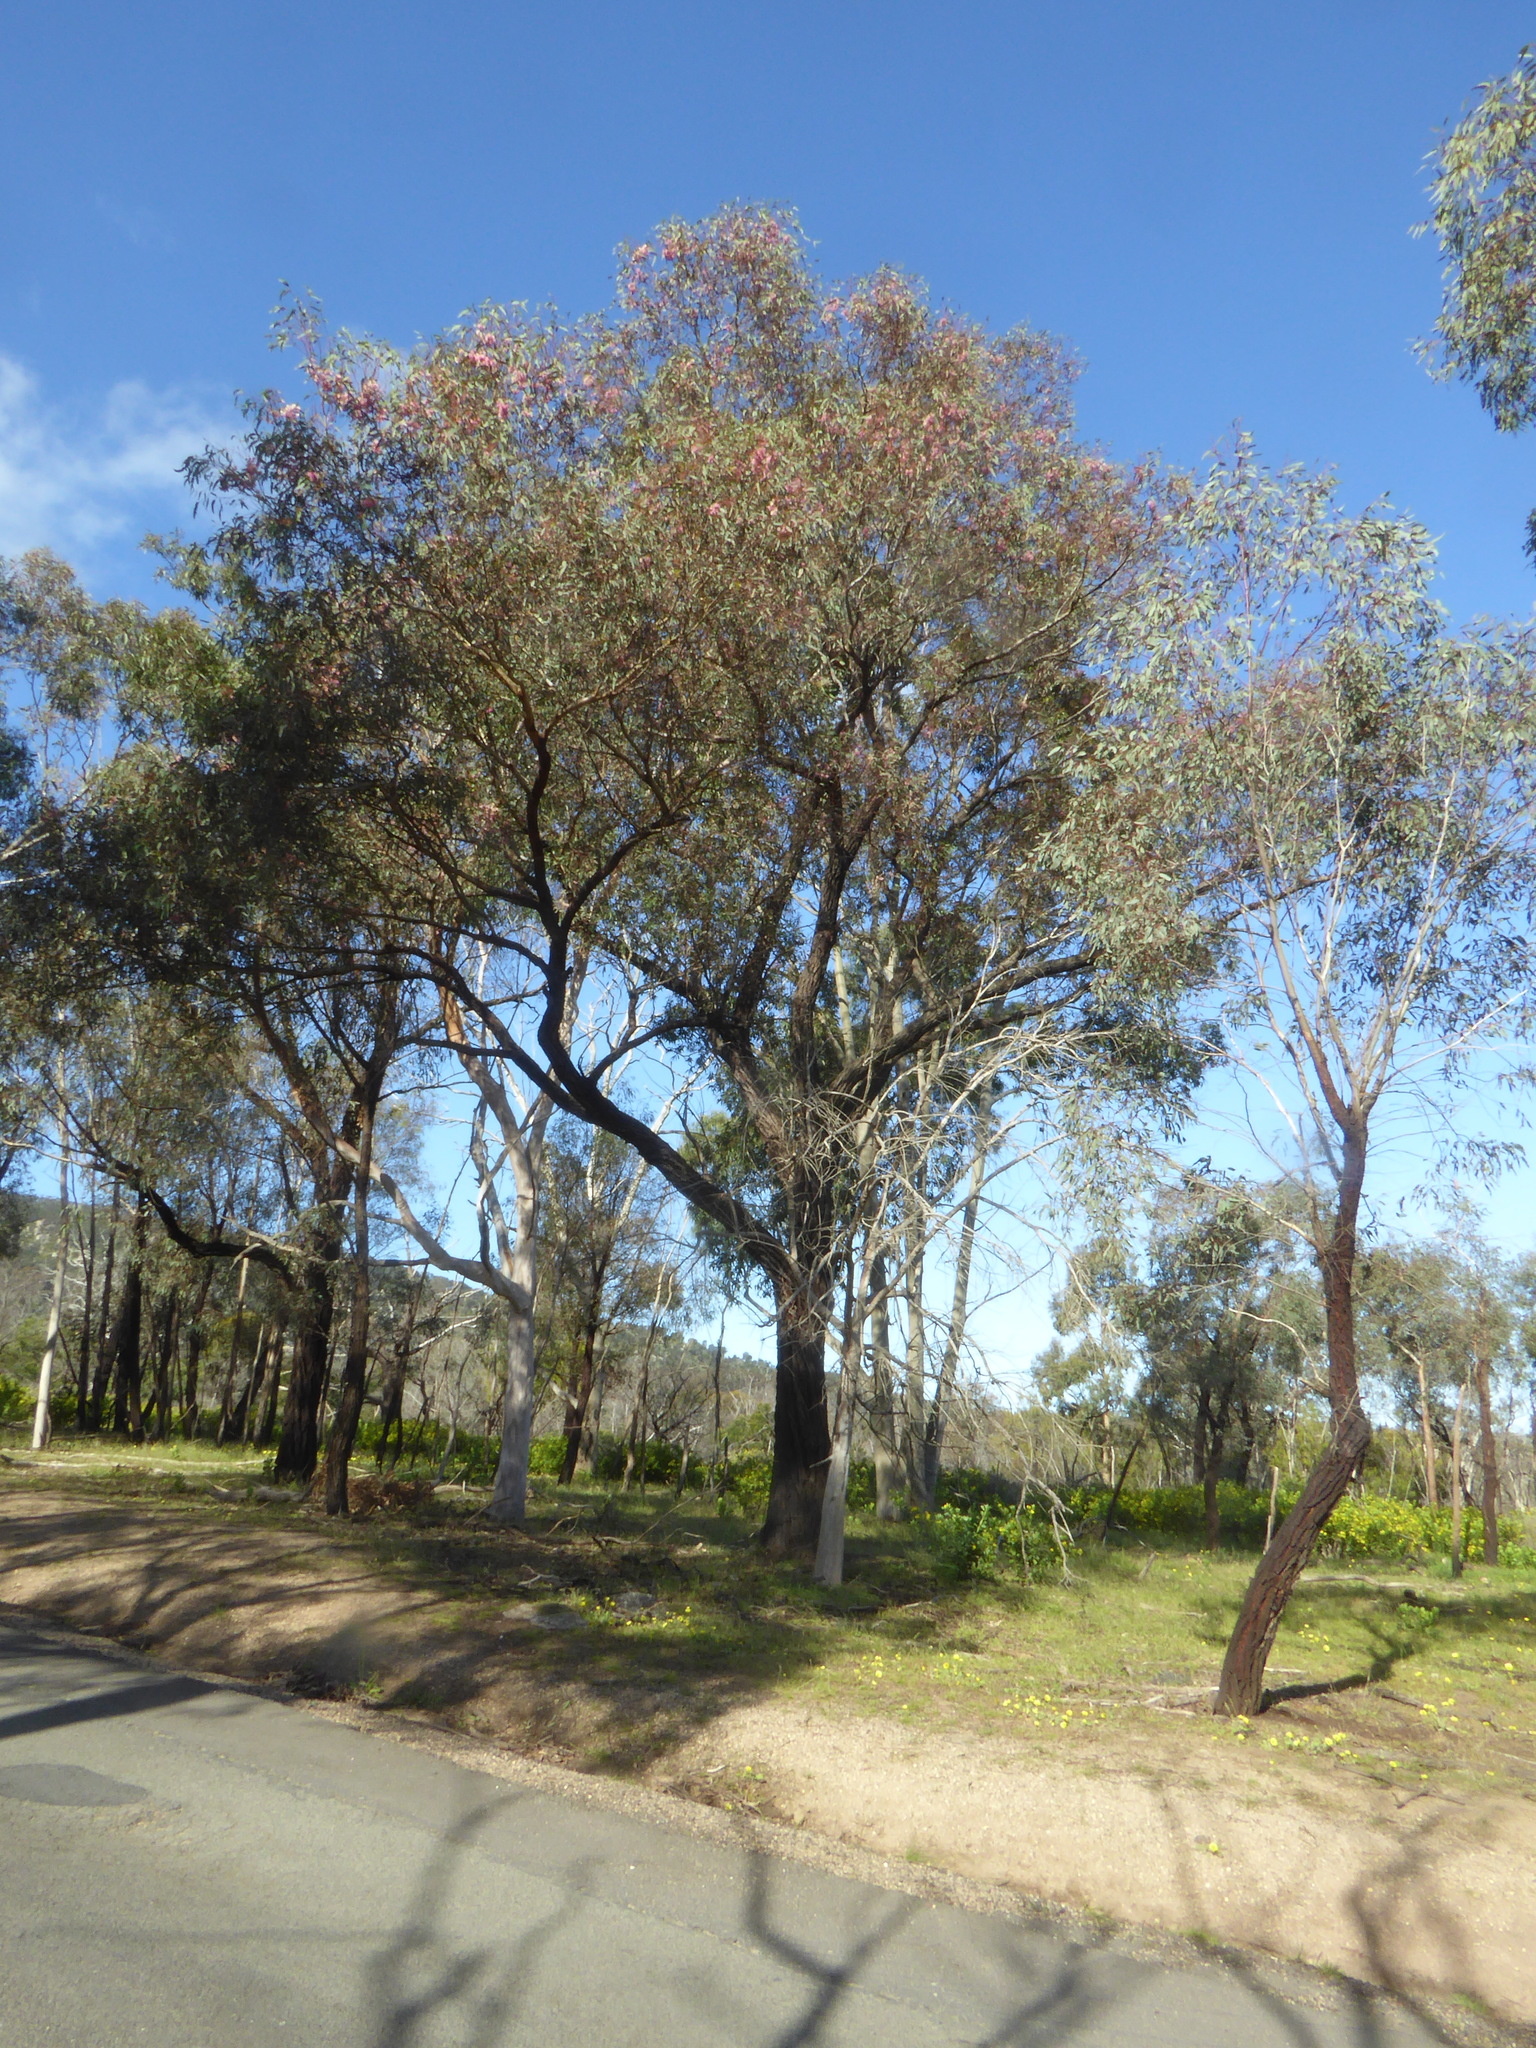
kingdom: Plantae
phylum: Tracheophyta
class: Magnoliopsida
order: Myrtales
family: Myrtaceae
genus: Eucalyptus
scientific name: Eucalyptus sideroxylon
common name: Red ironbark
